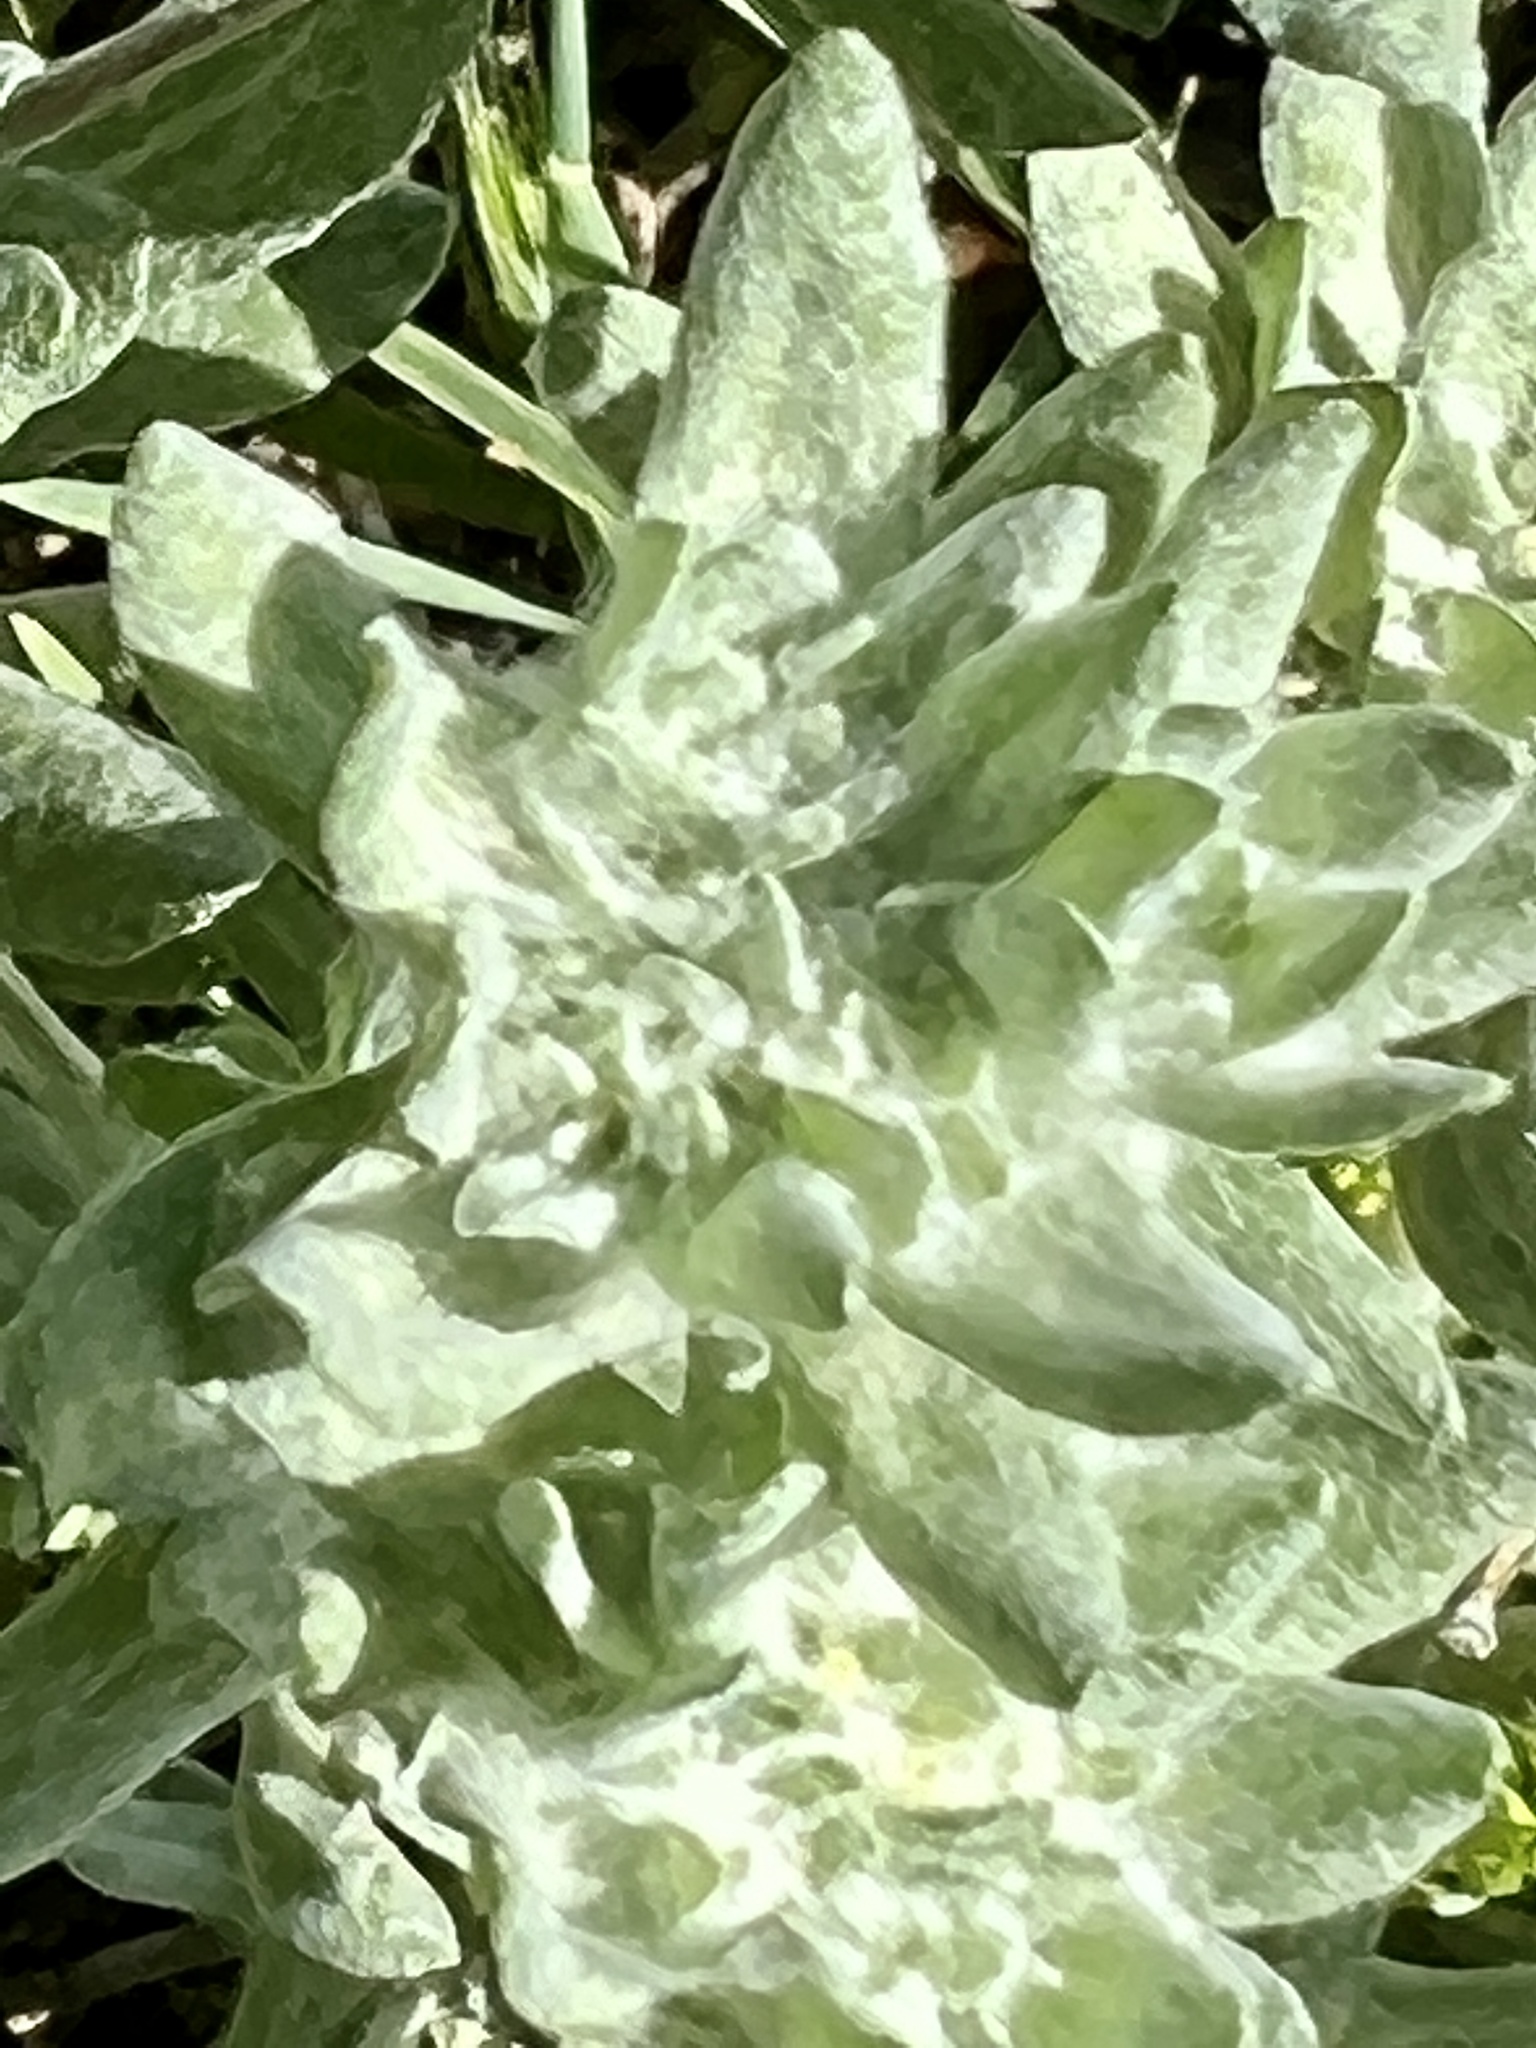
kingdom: Plantae
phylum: Tracheophyta
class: Magnoliopsida
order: Asterales
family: Asteraceae
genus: Diaperia
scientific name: Diaperia prolifera
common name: Big-head rabbit-tobacco
